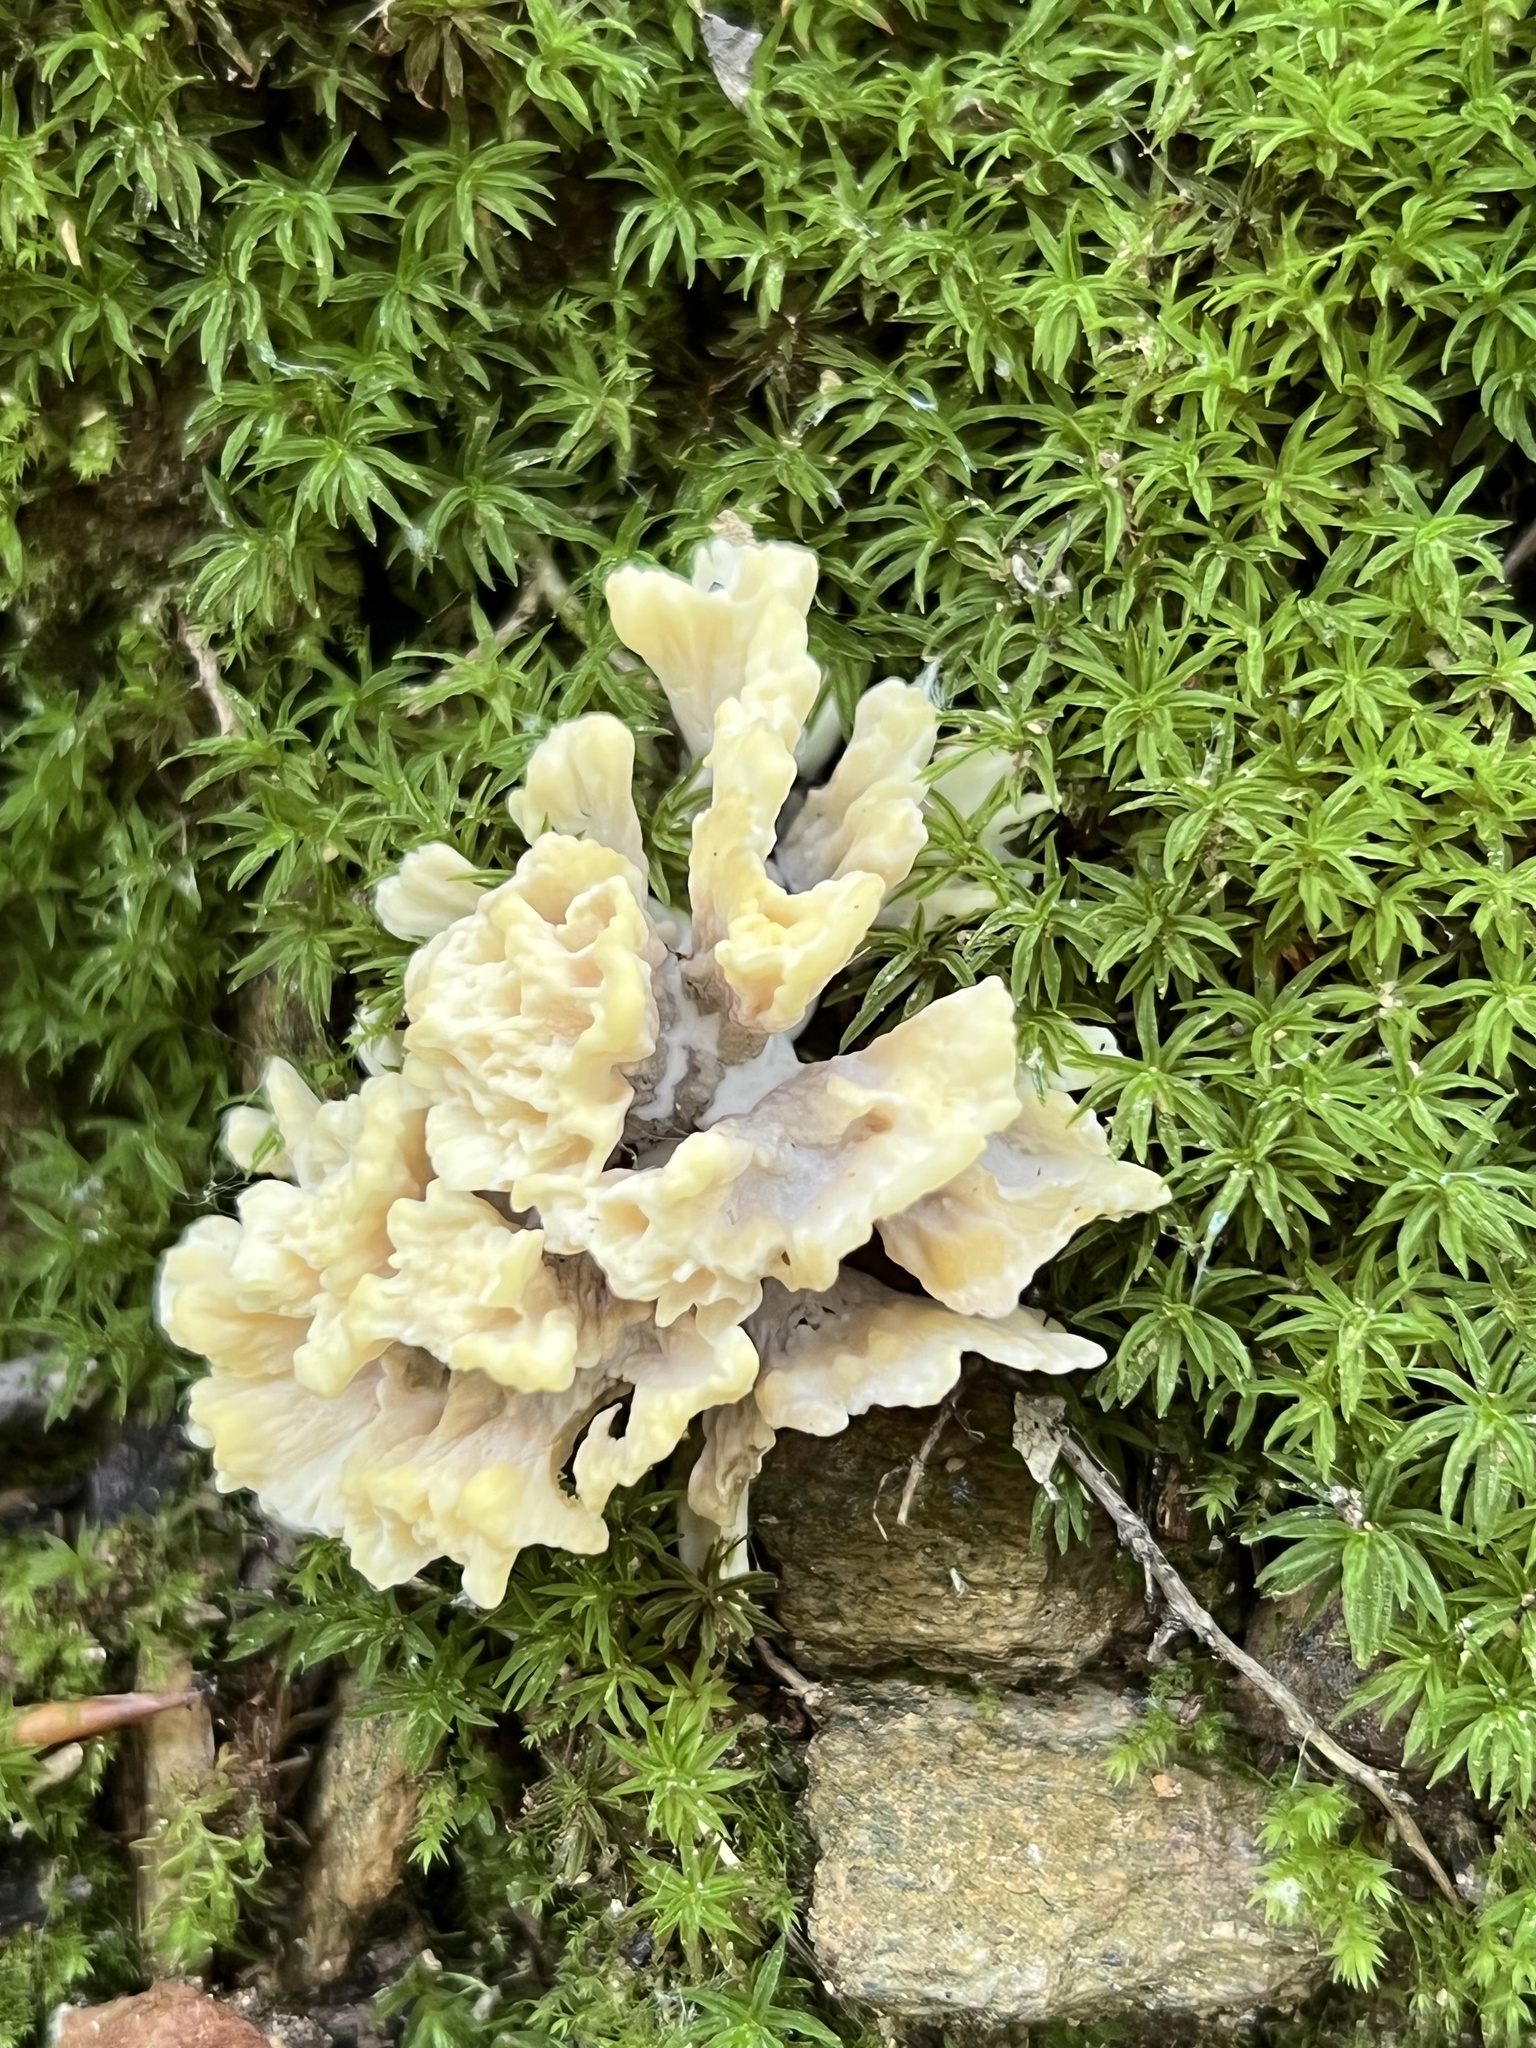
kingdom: Fungi
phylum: Basidiomycota
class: Agaricomycetes
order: Thelephorales
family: Thelephoraceae
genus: Thelephora
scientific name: Thelephora vialis
